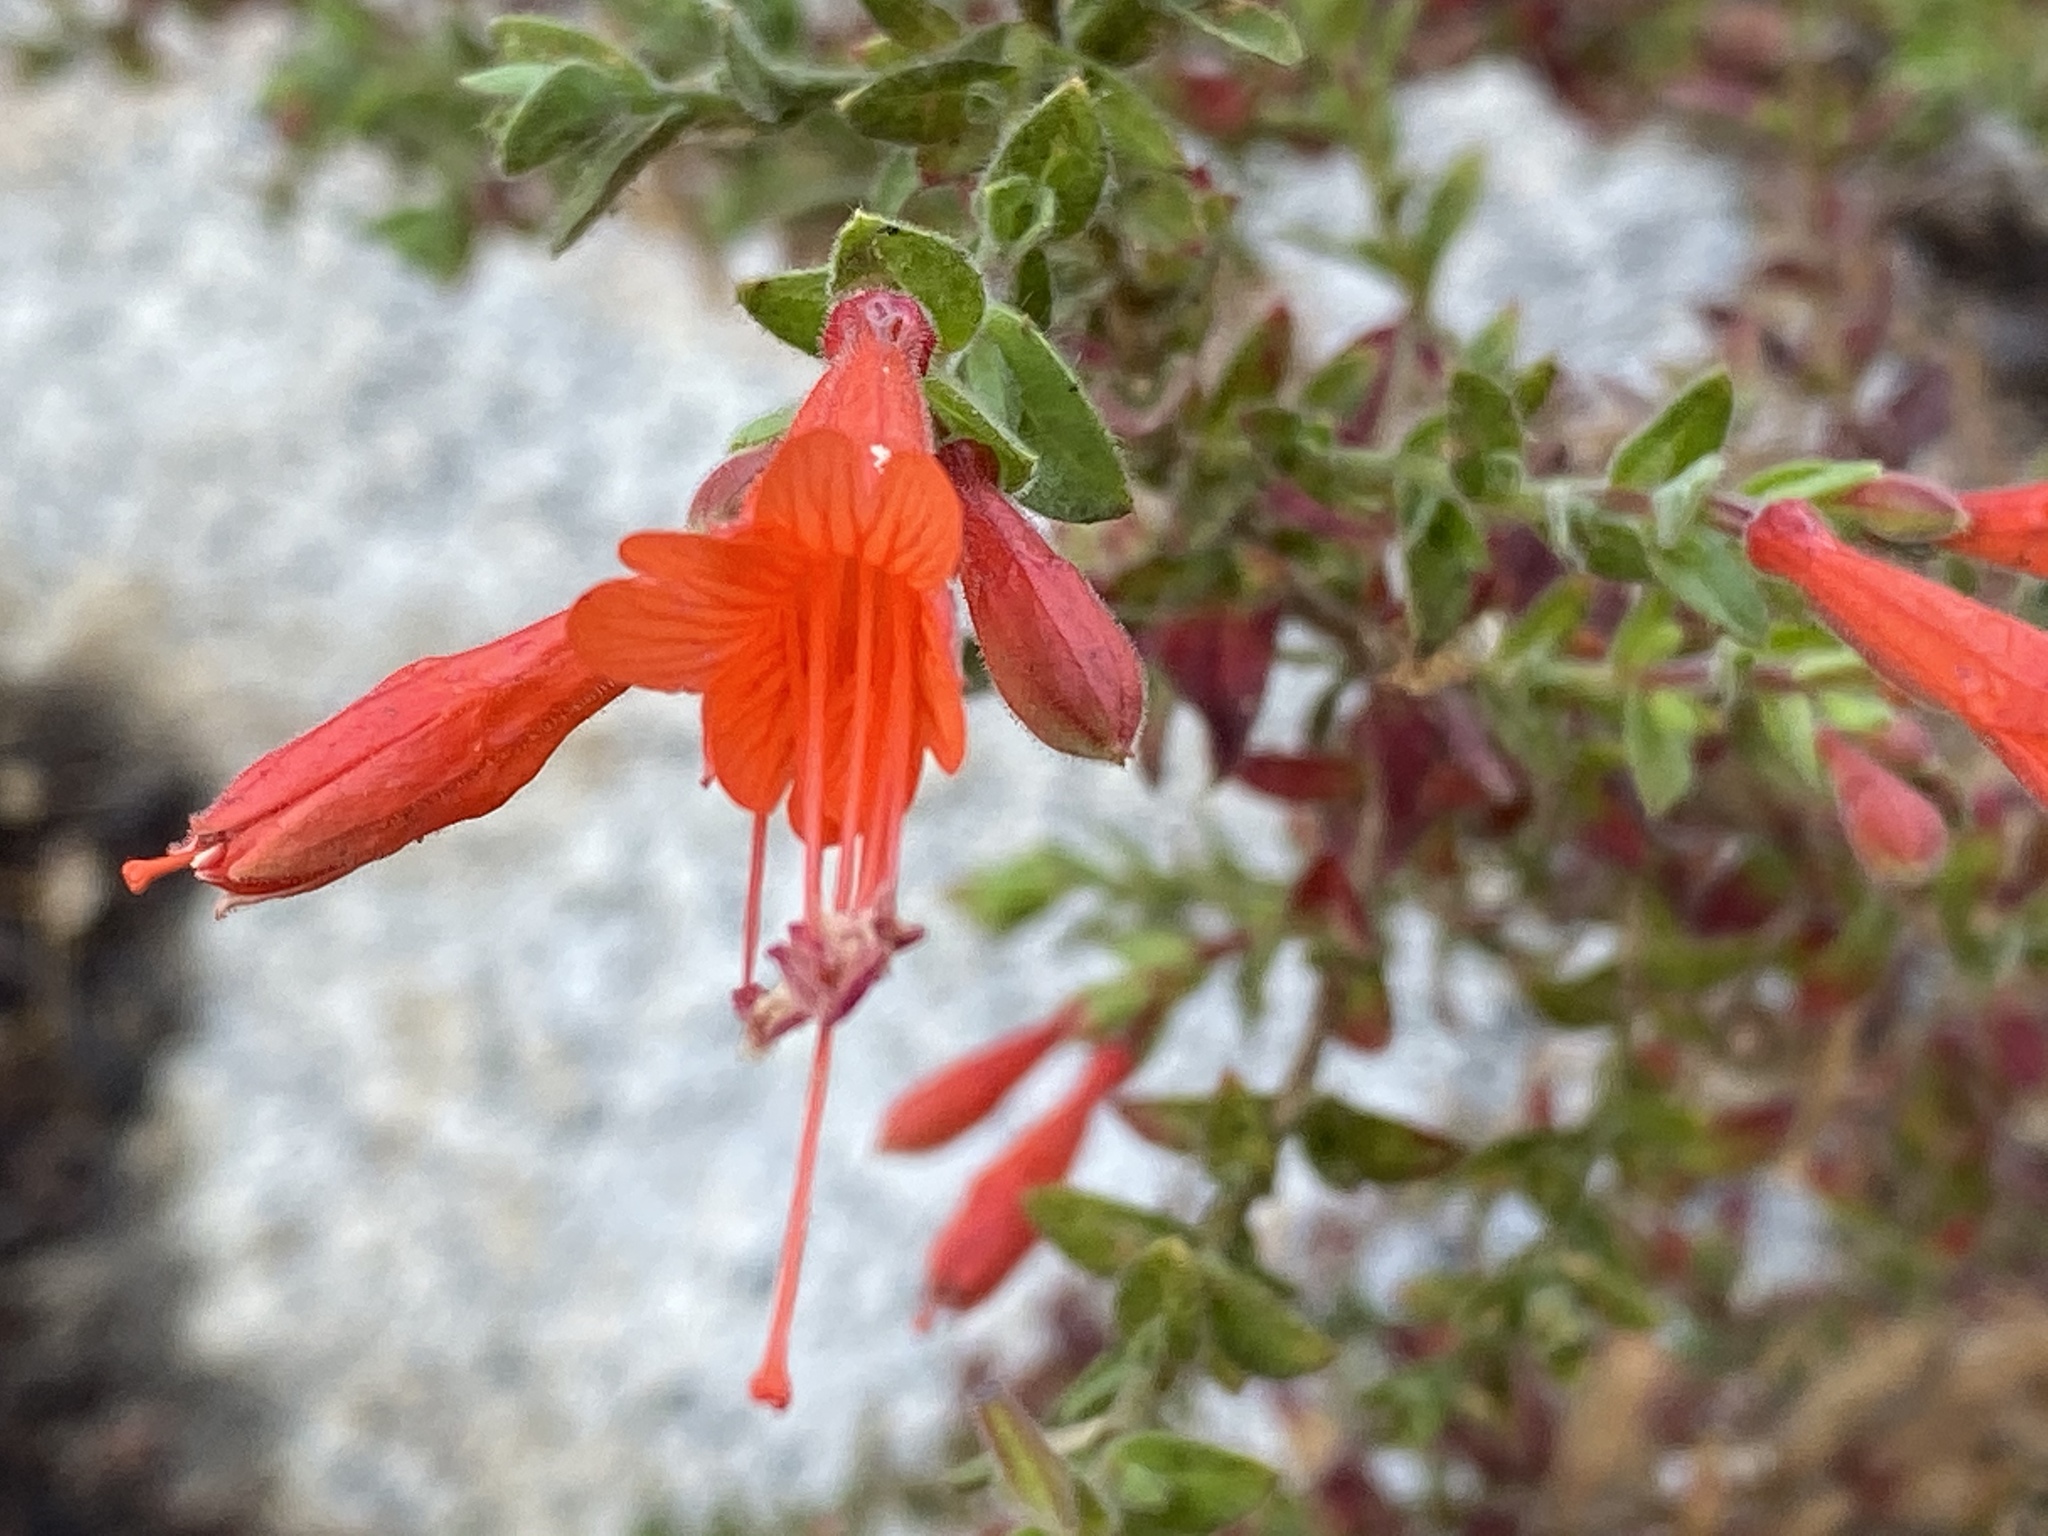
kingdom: Plantae
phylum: Tracheophyta
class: Magnoliopsida
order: Myrtales
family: Onagraceae
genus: Epilobium
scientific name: Epilobium canum
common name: California-fuchsia
